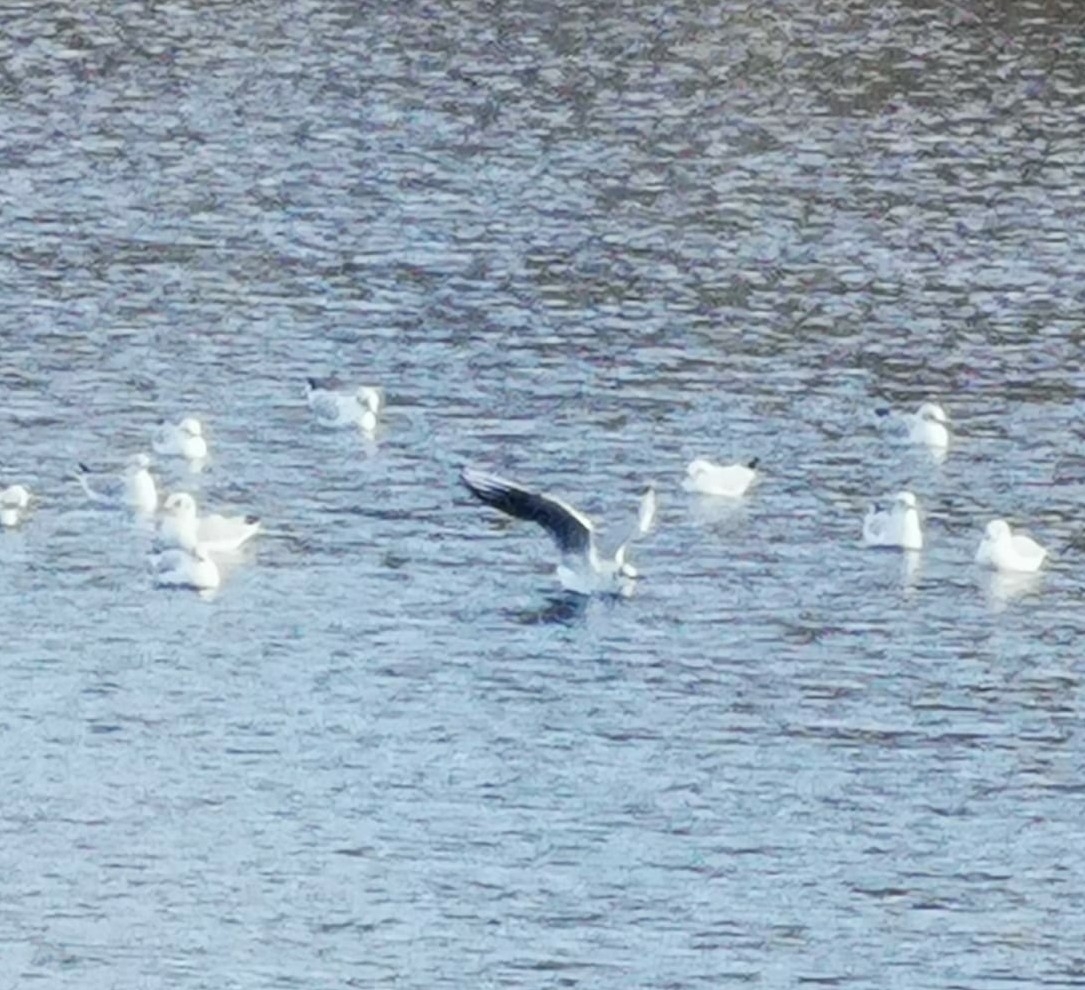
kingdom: Animalia
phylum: Chordata
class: Aves
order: Charadriiformes
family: Laridae
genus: Chroicocephalus
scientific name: Chroicocephalus ridibundus
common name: Black-headed gull
